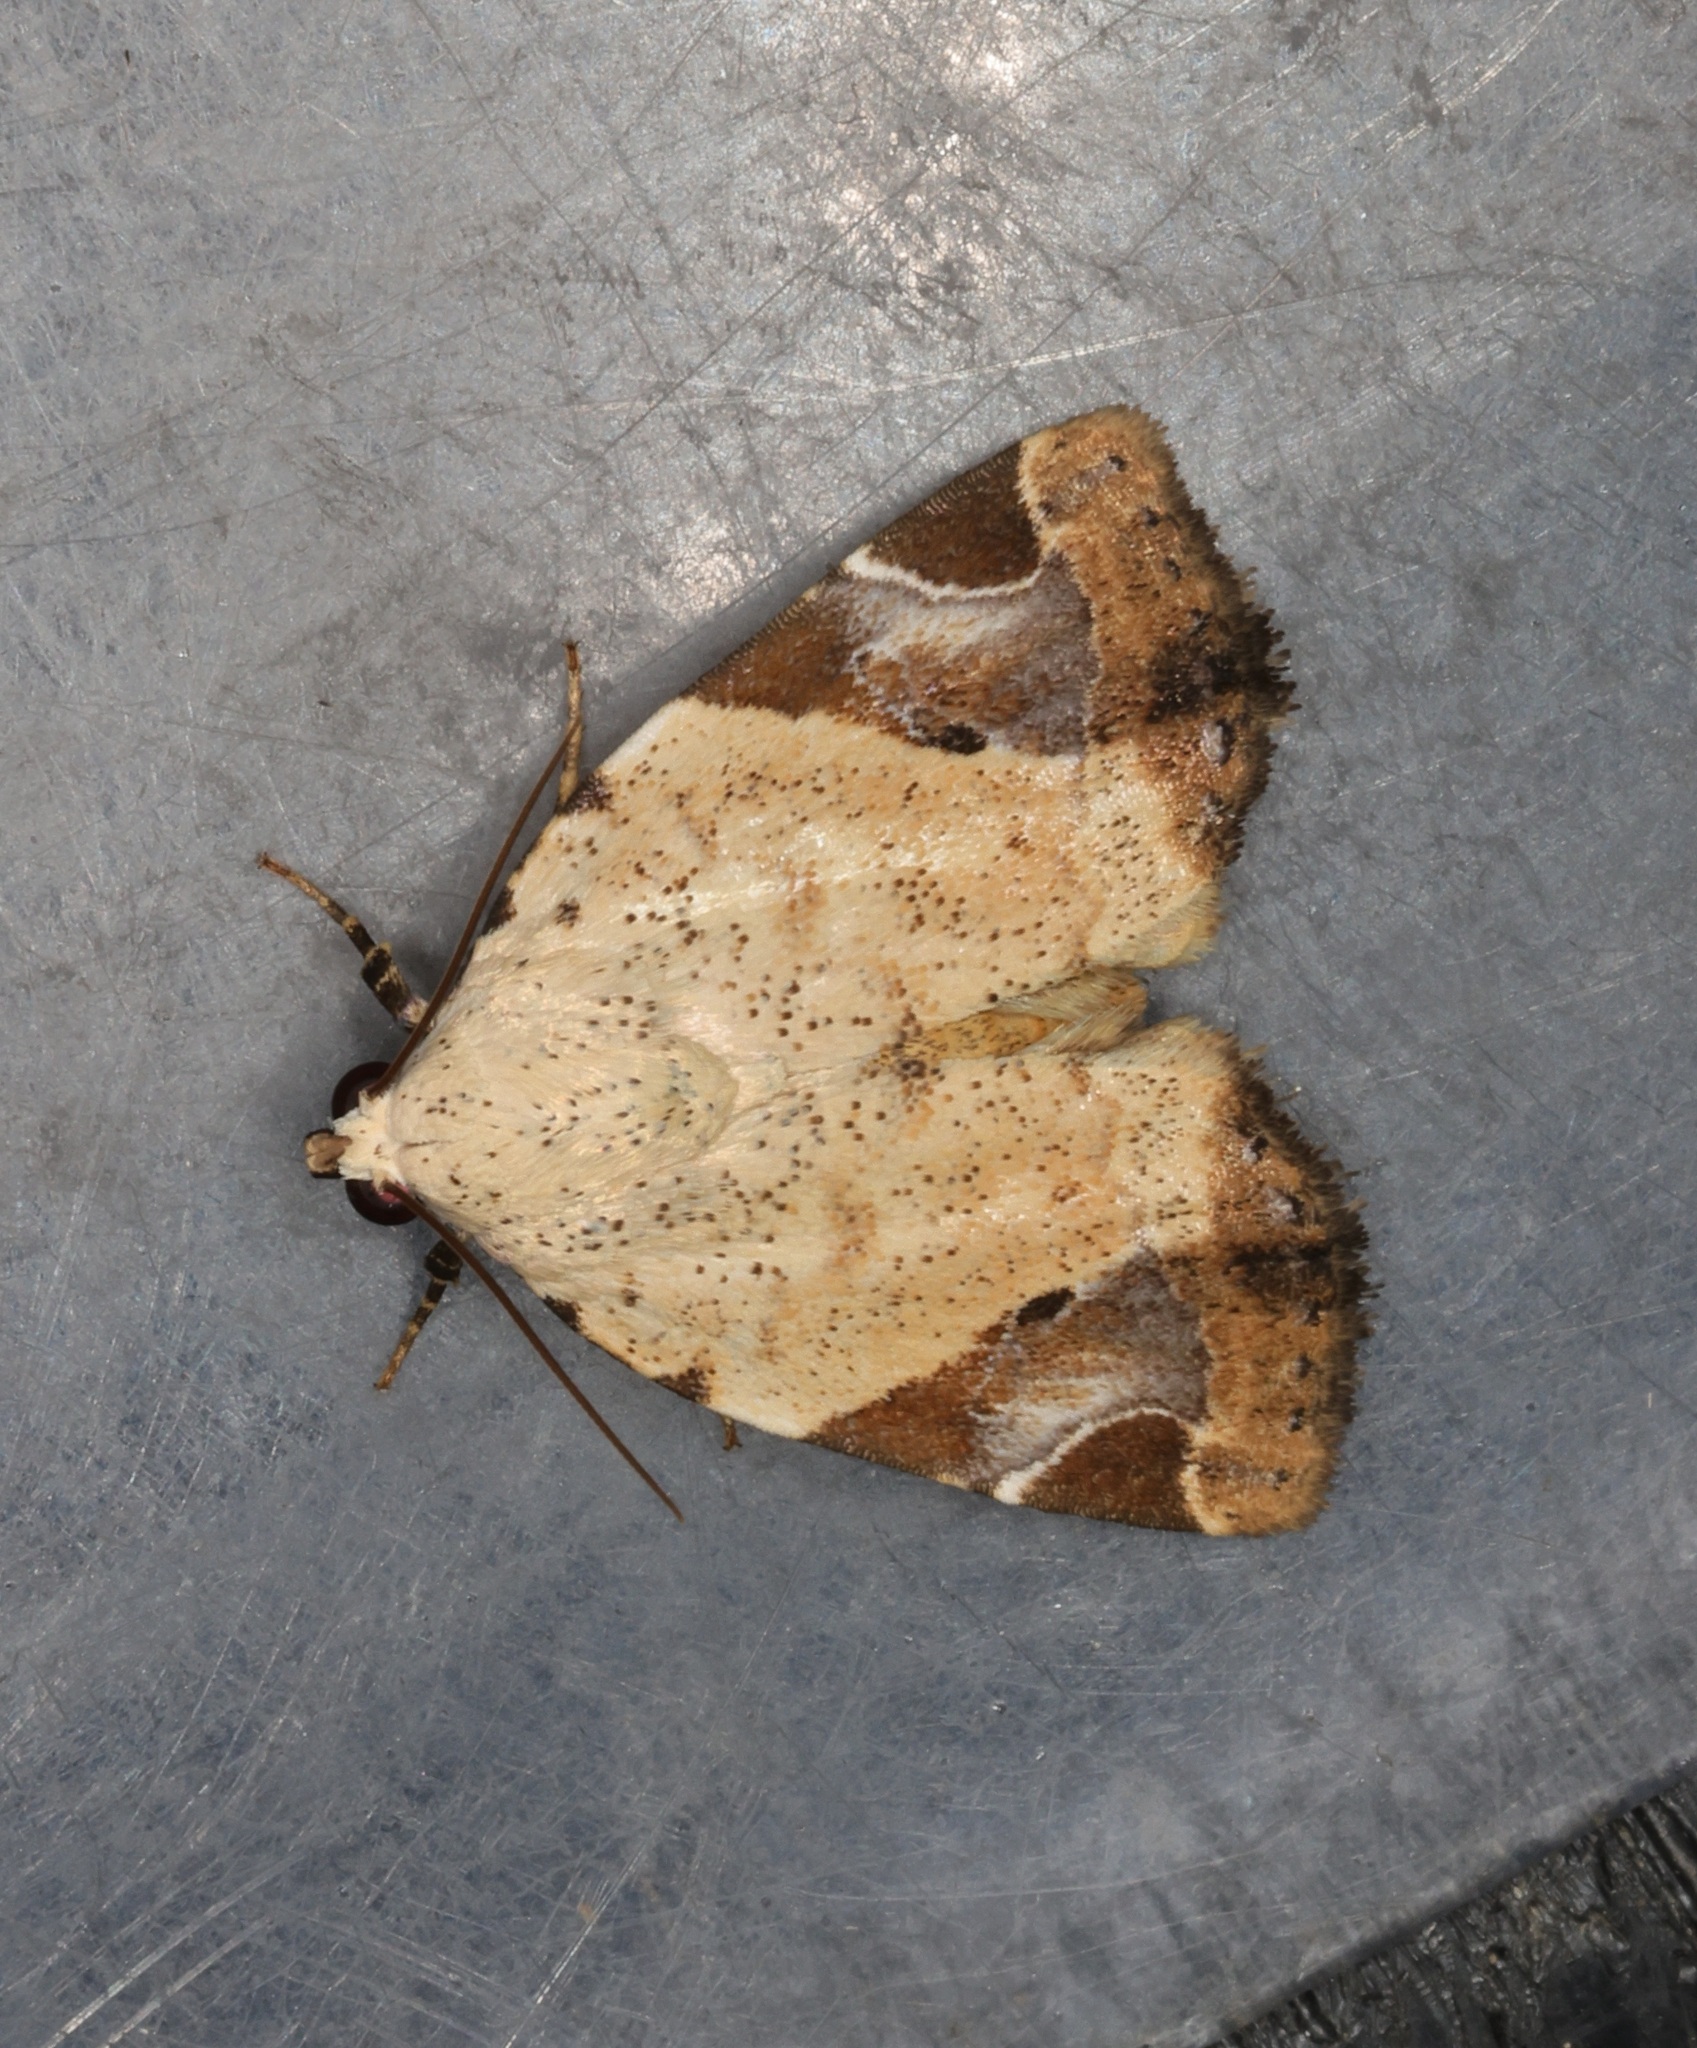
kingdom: Animalia
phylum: Arthropoda
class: Insecta
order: Lepidoptera
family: Noctuidae
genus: Pseudeustrotia
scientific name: Pseudeustrotia semialba
